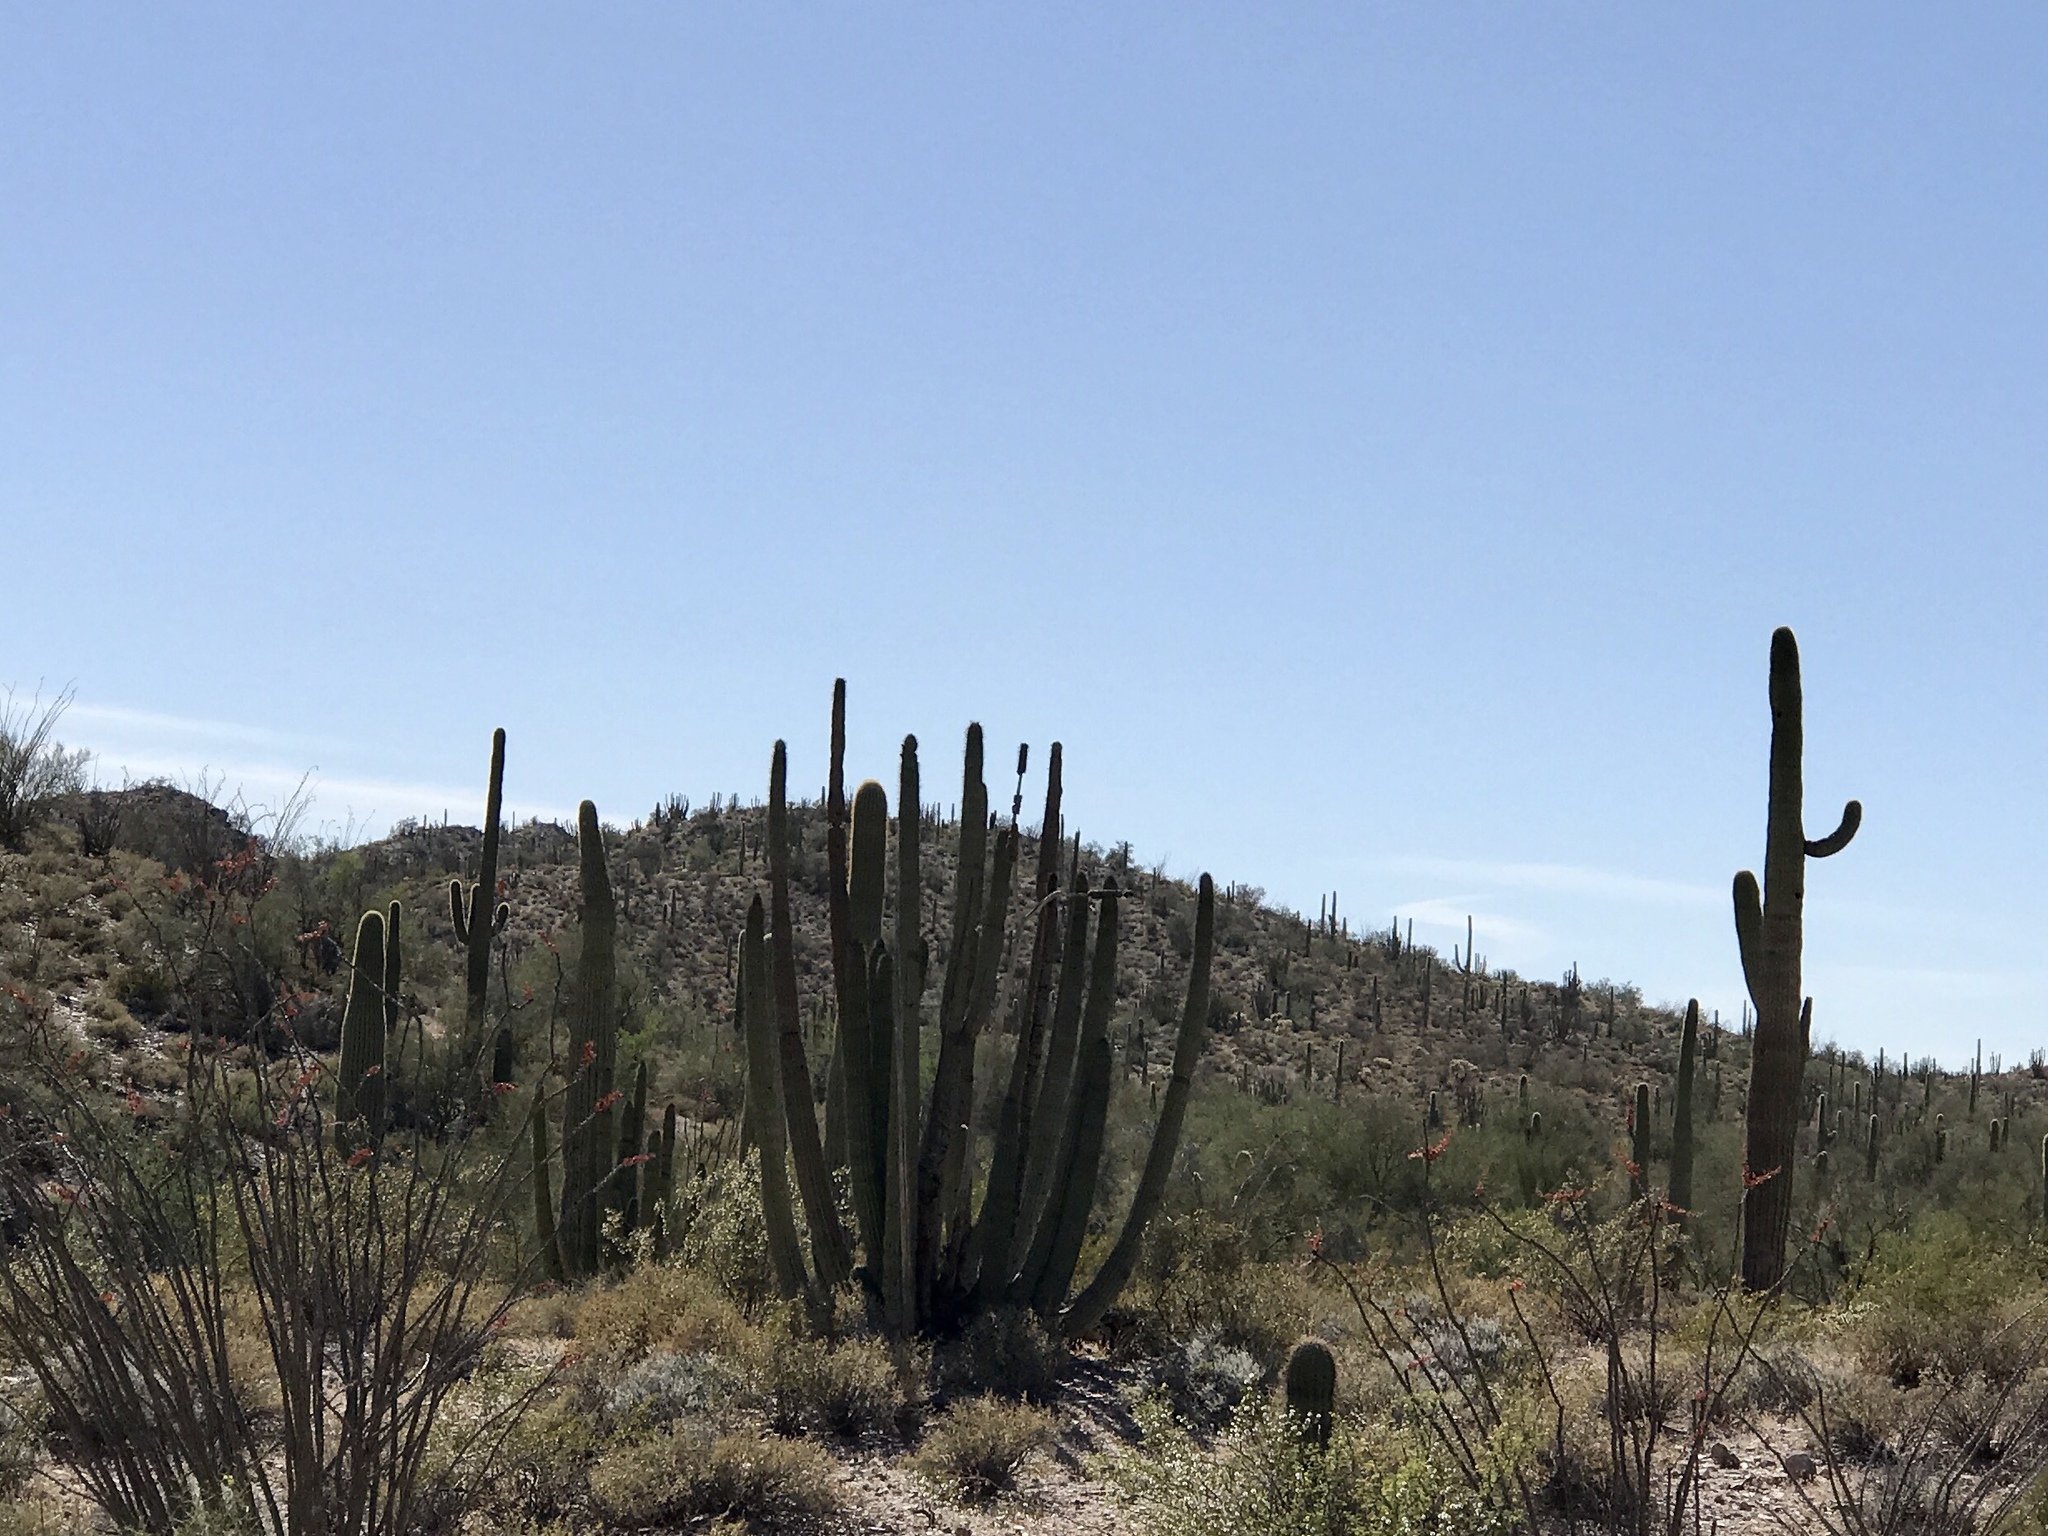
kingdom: Plantae
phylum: Tracheophyta
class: Magnoliopsida
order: Caryophyllales
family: Cactaceae
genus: Carnegiea
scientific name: Carnegiea gigantea
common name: Saguaro
